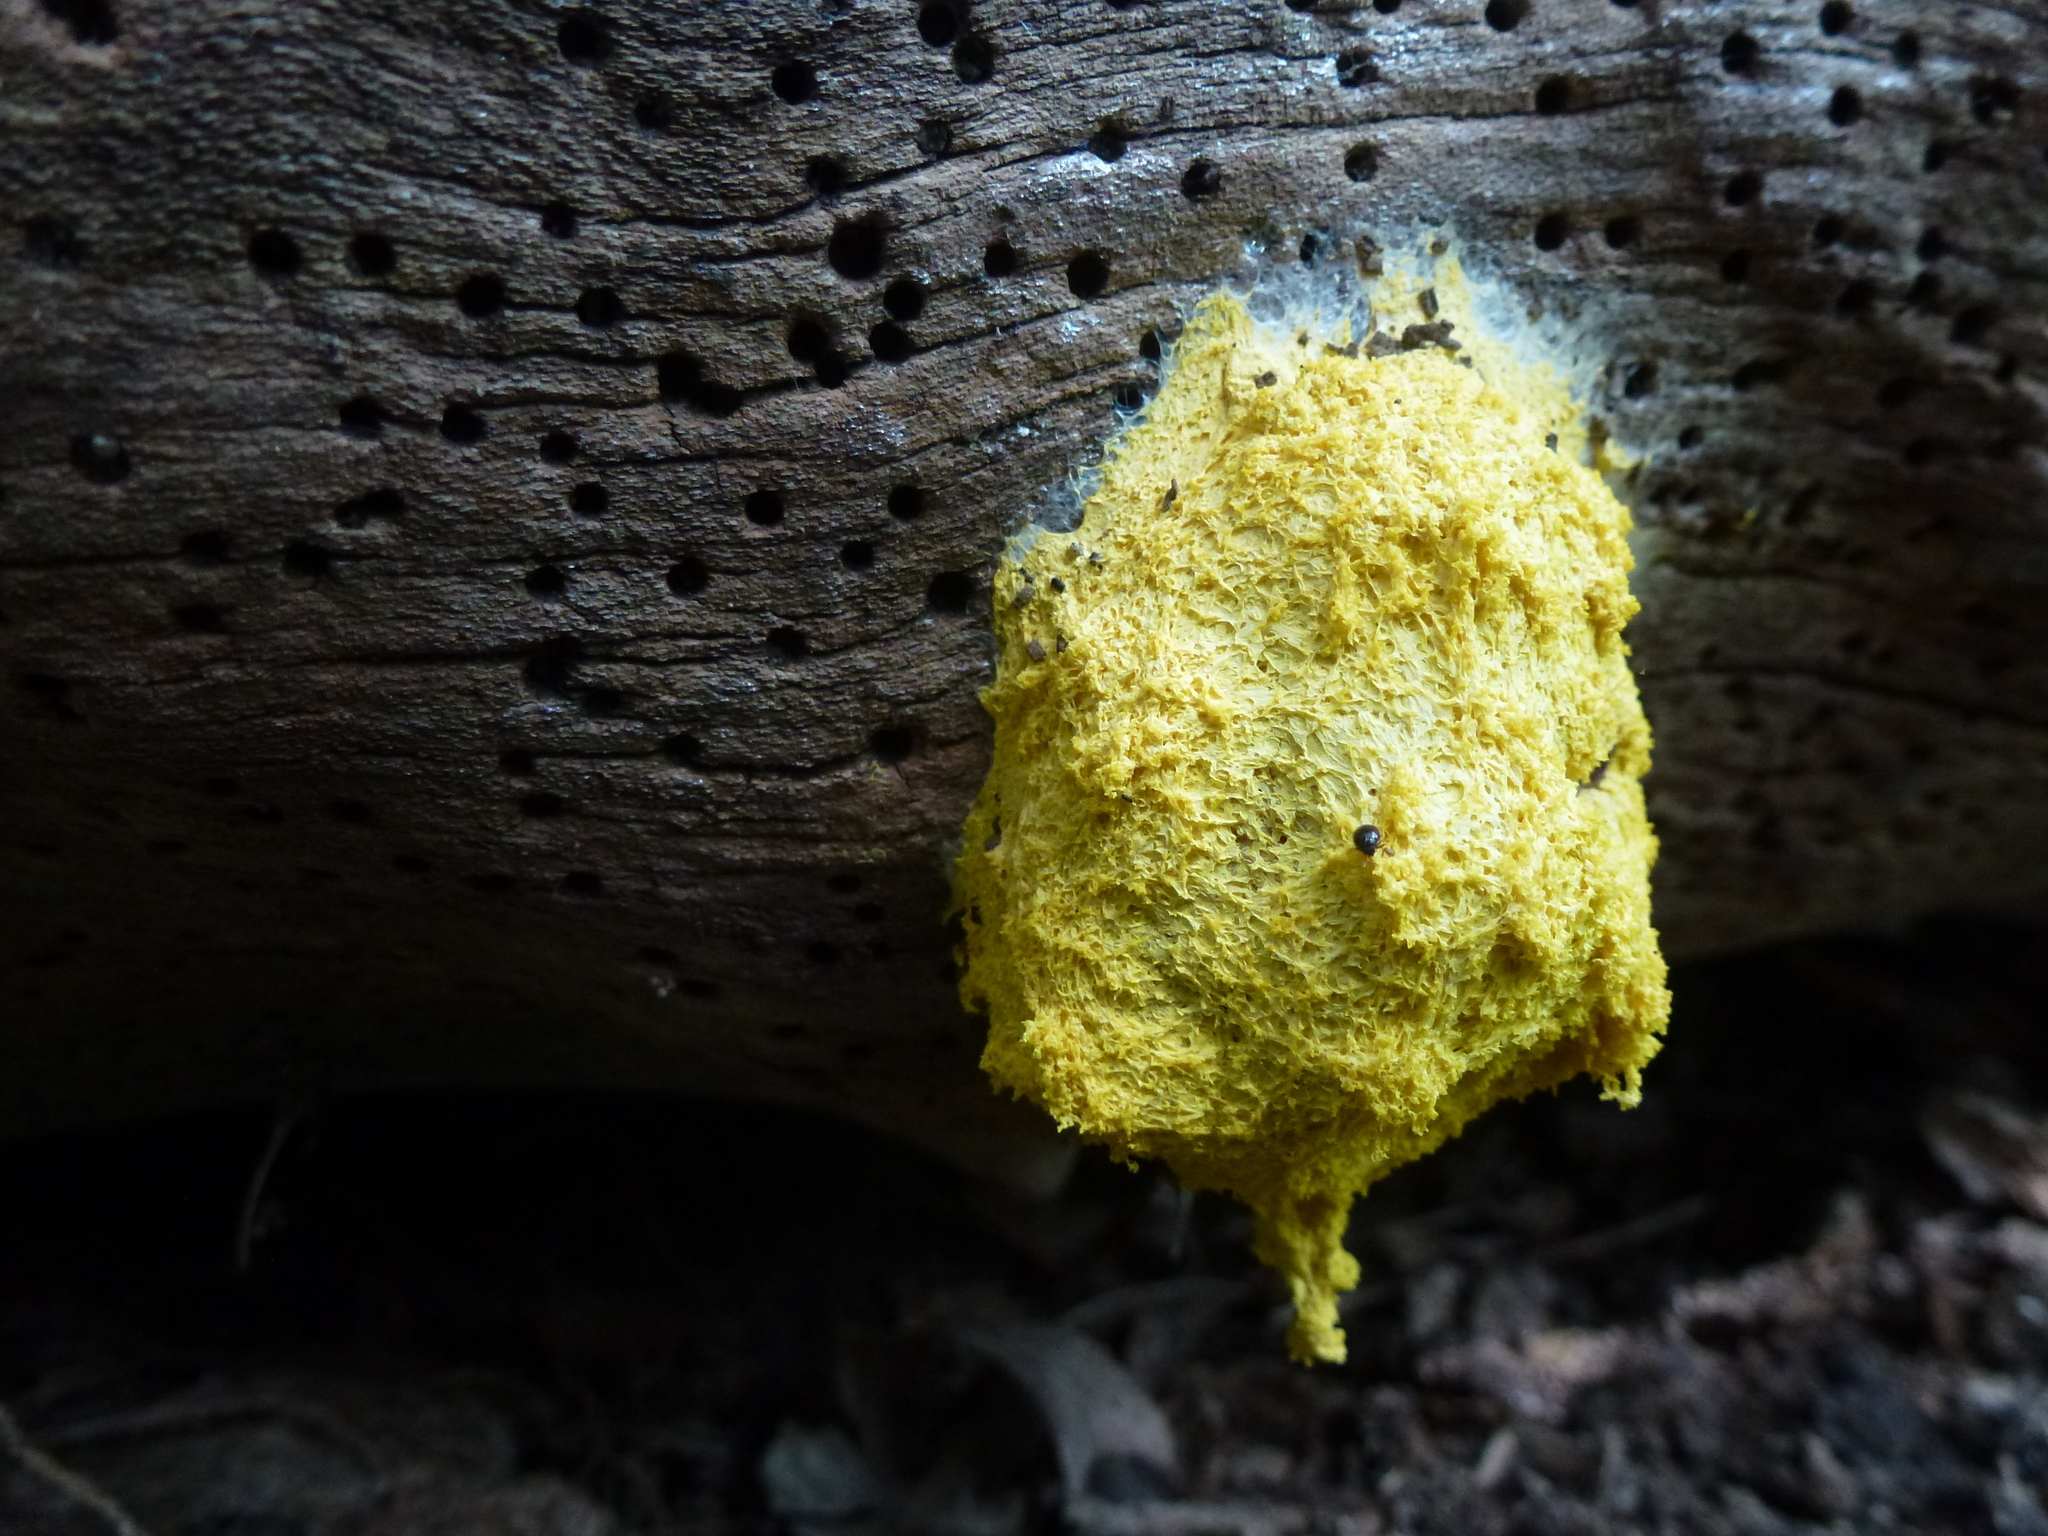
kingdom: Protozoa
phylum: Mycetozoa
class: Myxomycetes
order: Physarales
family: Physaraceae
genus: Fuligo
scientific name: Fuligo septica
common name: Dog vomit slime mold
